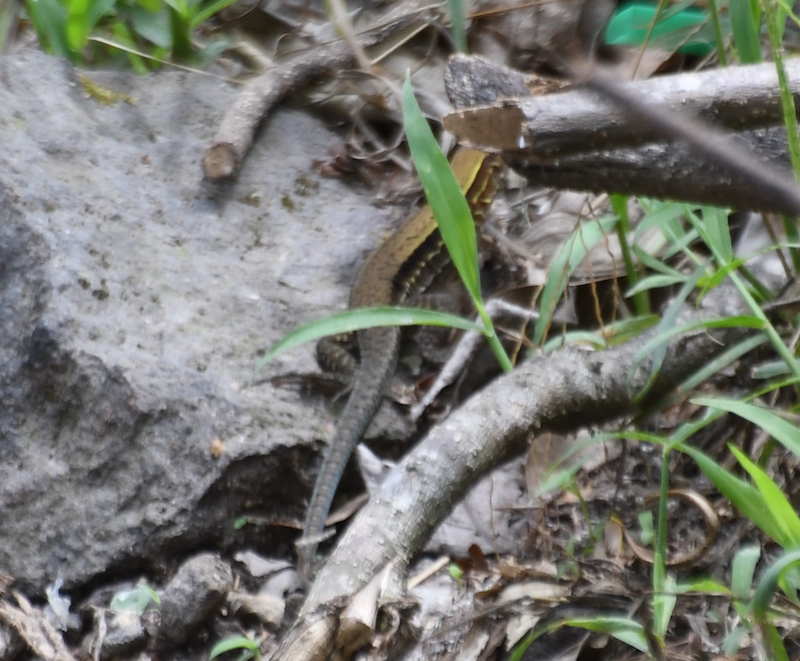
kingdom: Animalia
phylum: Chordata
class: Squamata
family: Teiidae
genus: Holcosus
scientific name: Holcosus undulatus
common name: Rainbow ameiva
